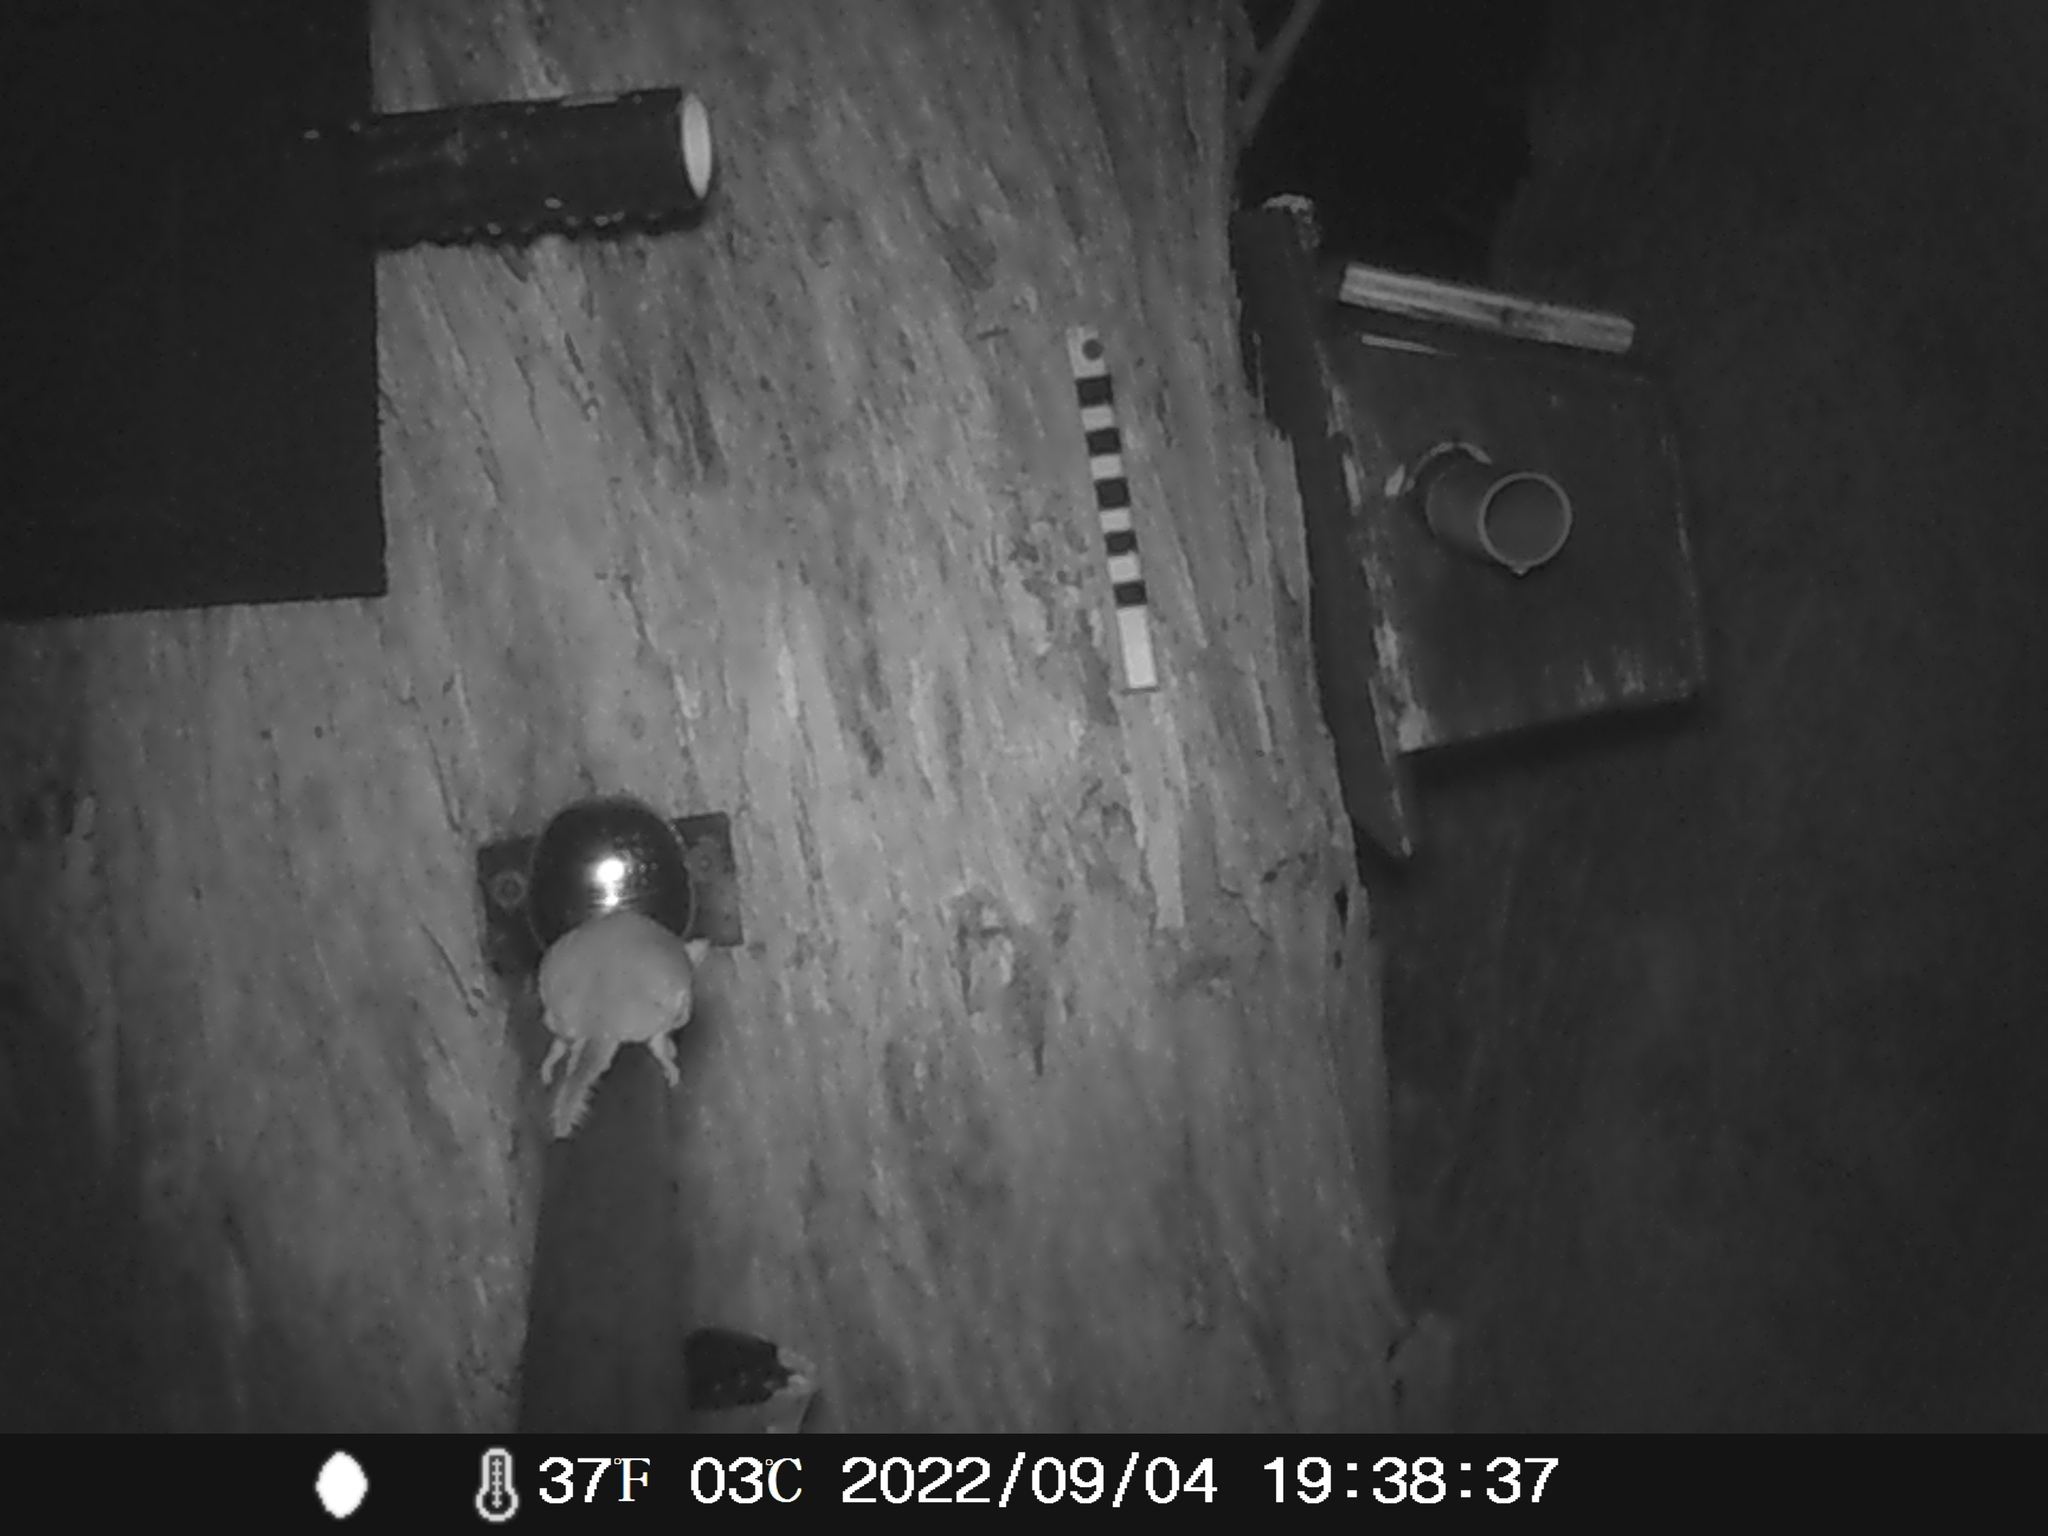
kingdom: Animalia
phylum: Chordata
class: Mammalia
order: Diprotodontia
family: Acrobatidae
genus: Acrobates
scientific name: Acrobates pygmaeus
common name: Feathertail glider
